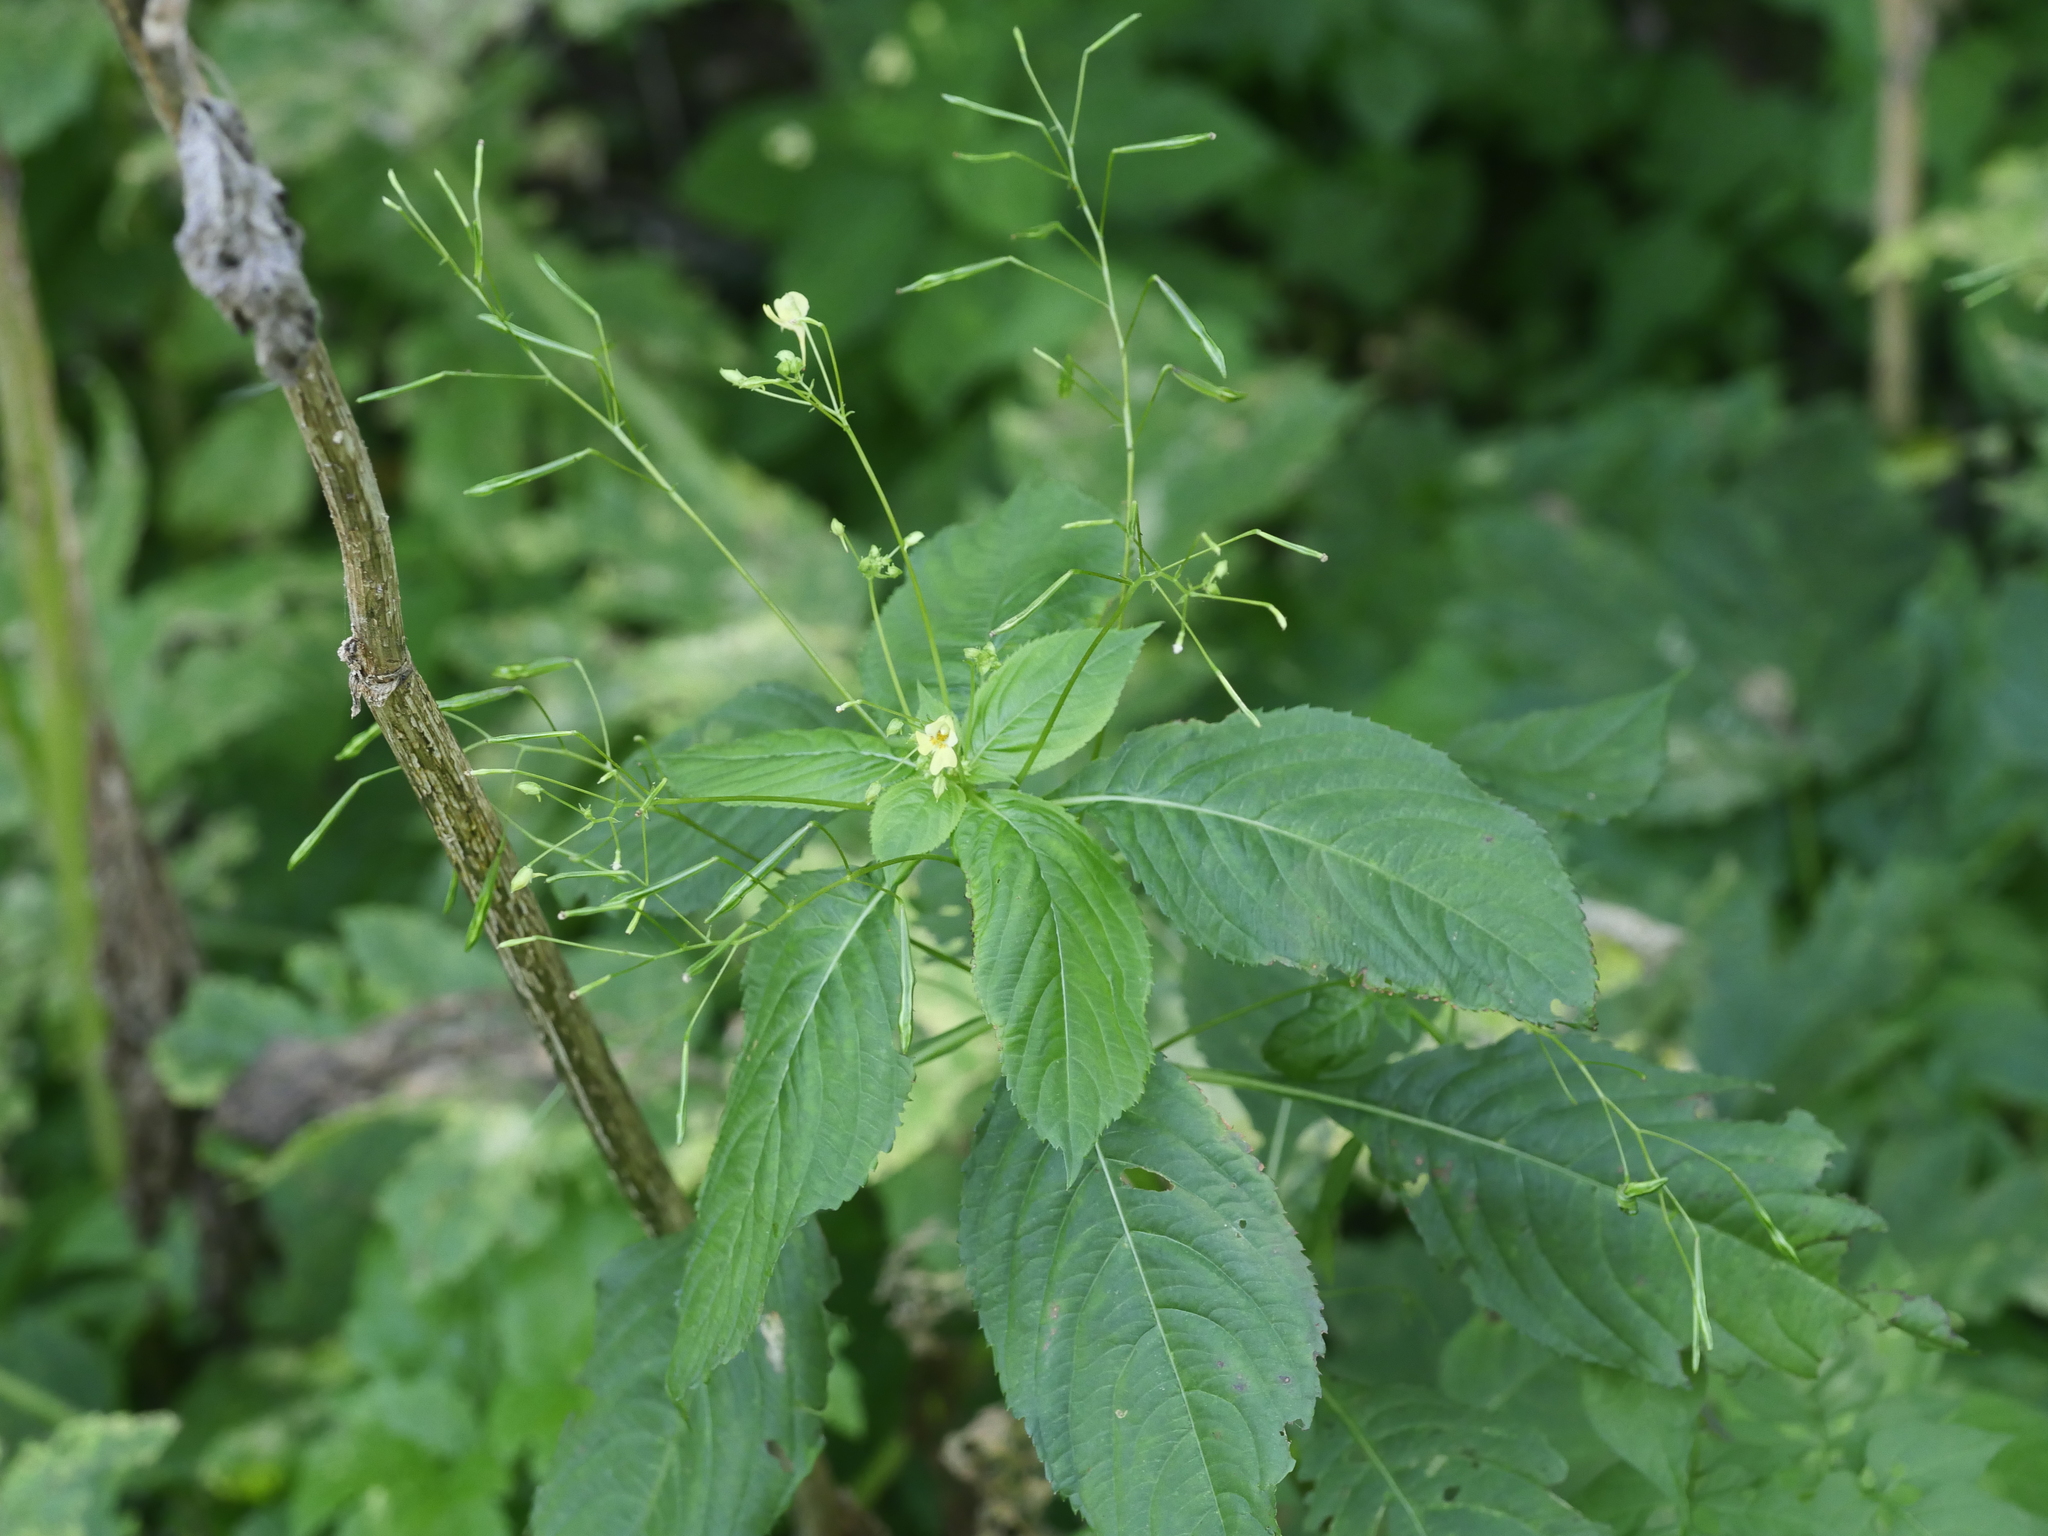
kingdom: Plantae
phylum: Tracheophyta
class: Magnoliopsida
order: Ericales
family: Balsaminaceae
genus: Impatiens
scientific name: Impatiens parviflora
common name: Small balsam
